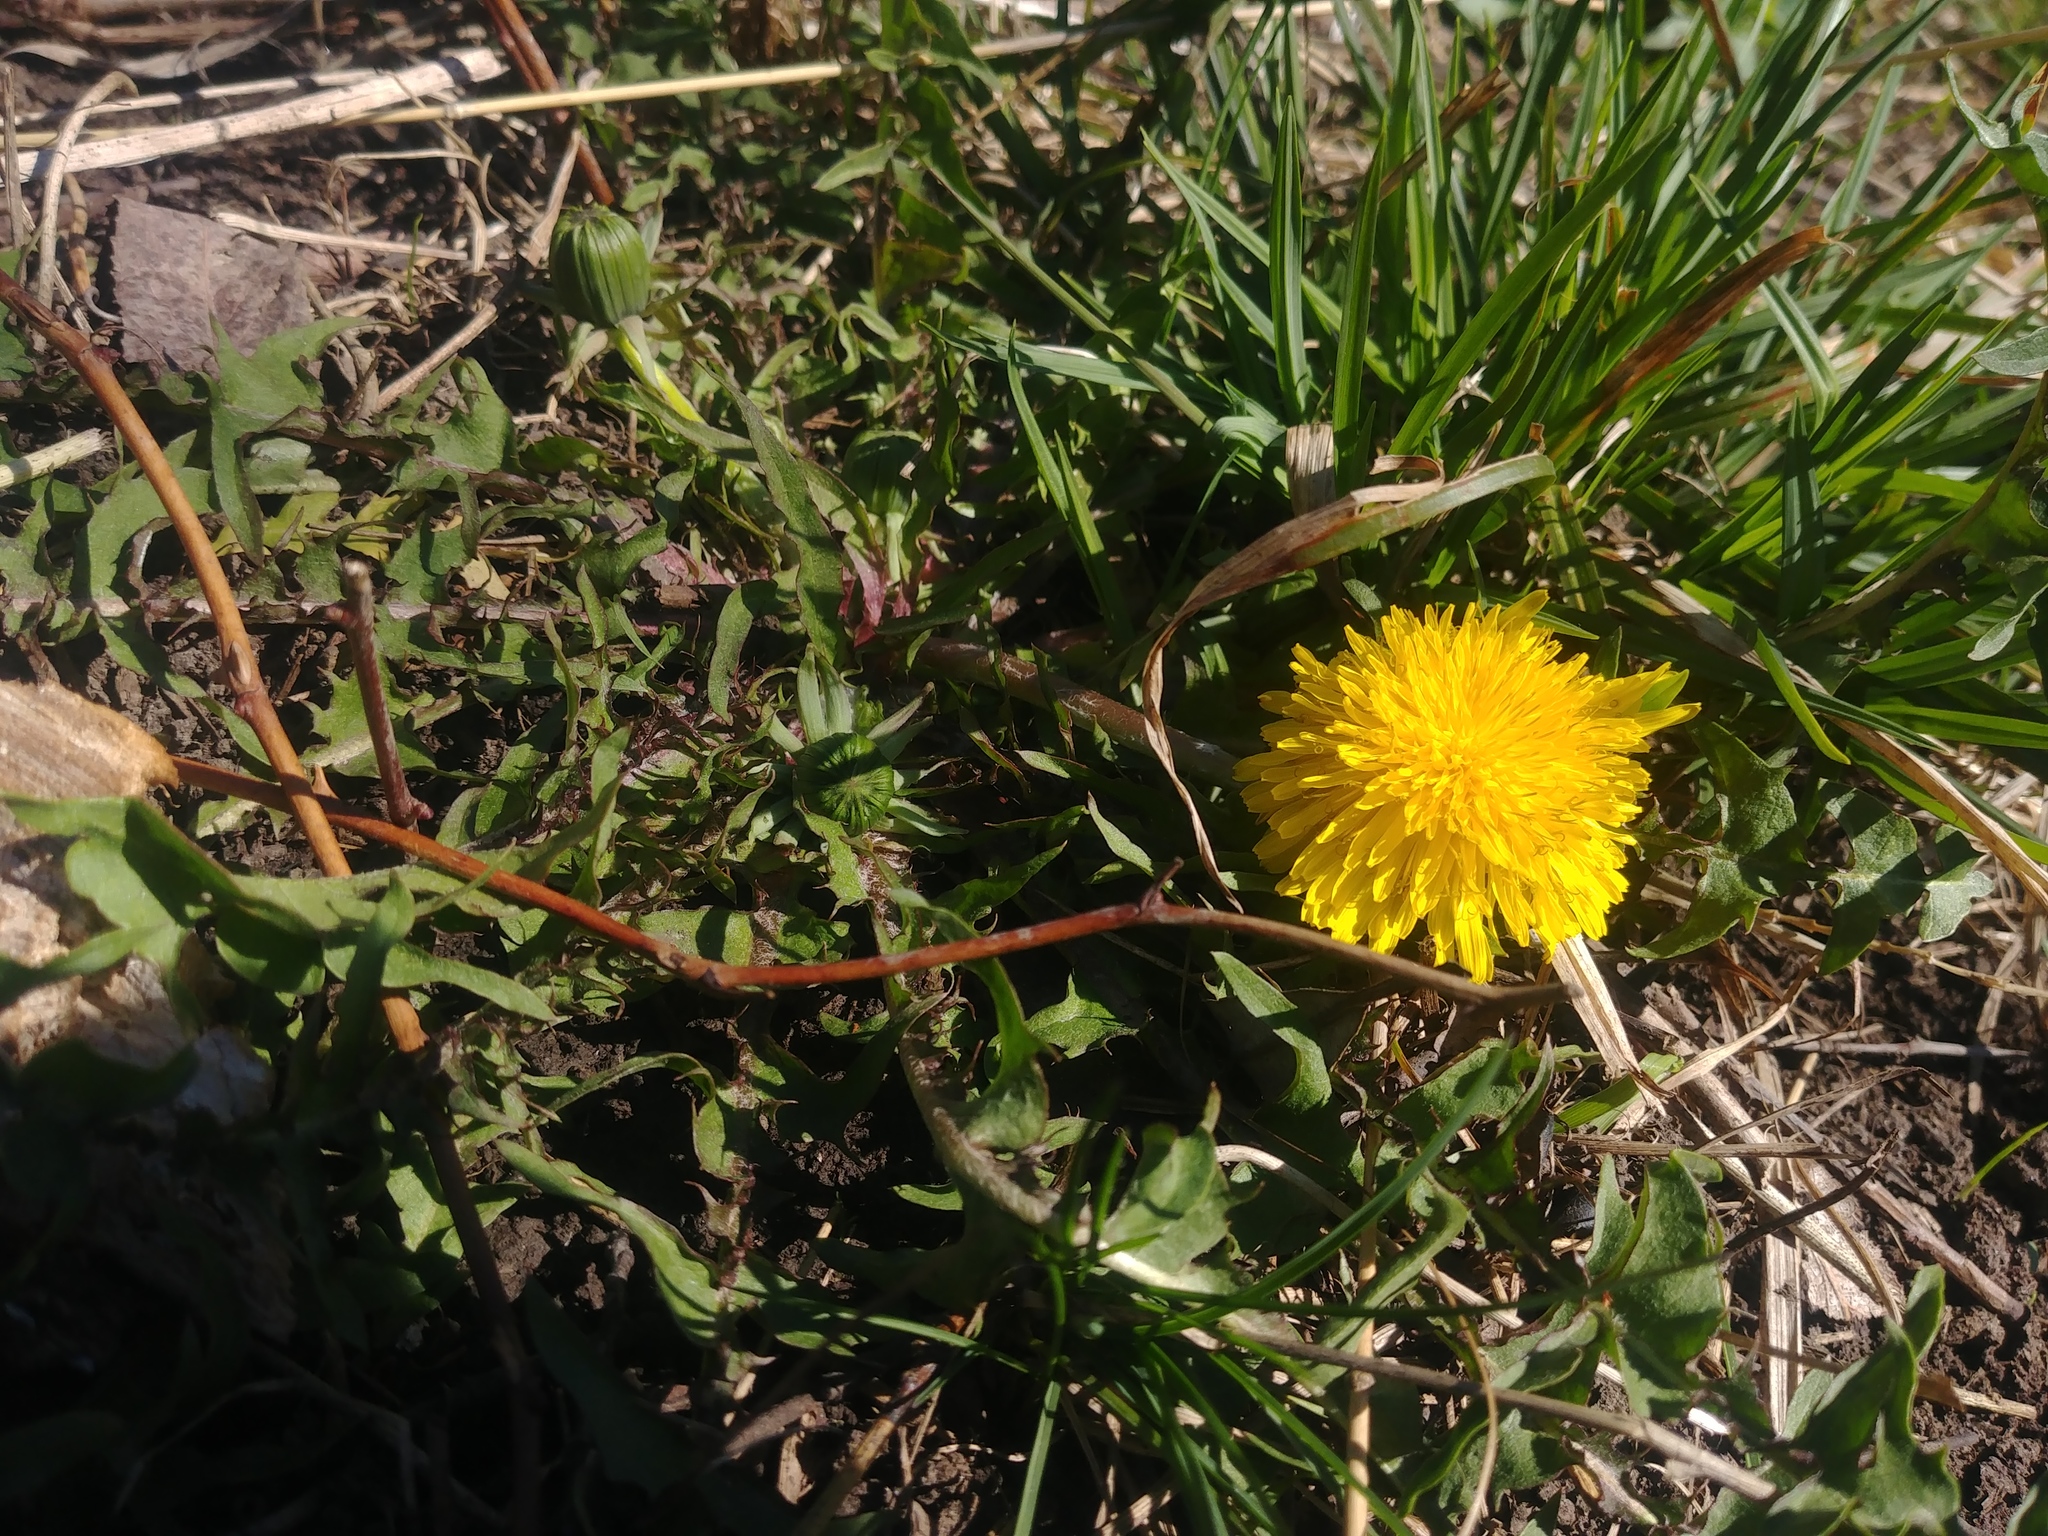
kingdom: Plantae
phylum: Tracheophyta
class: Magnoliopsida
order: Asterales
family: Asteraceae
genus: Taraxacum
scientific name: Taraxacum officinale
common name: Common dandelion
